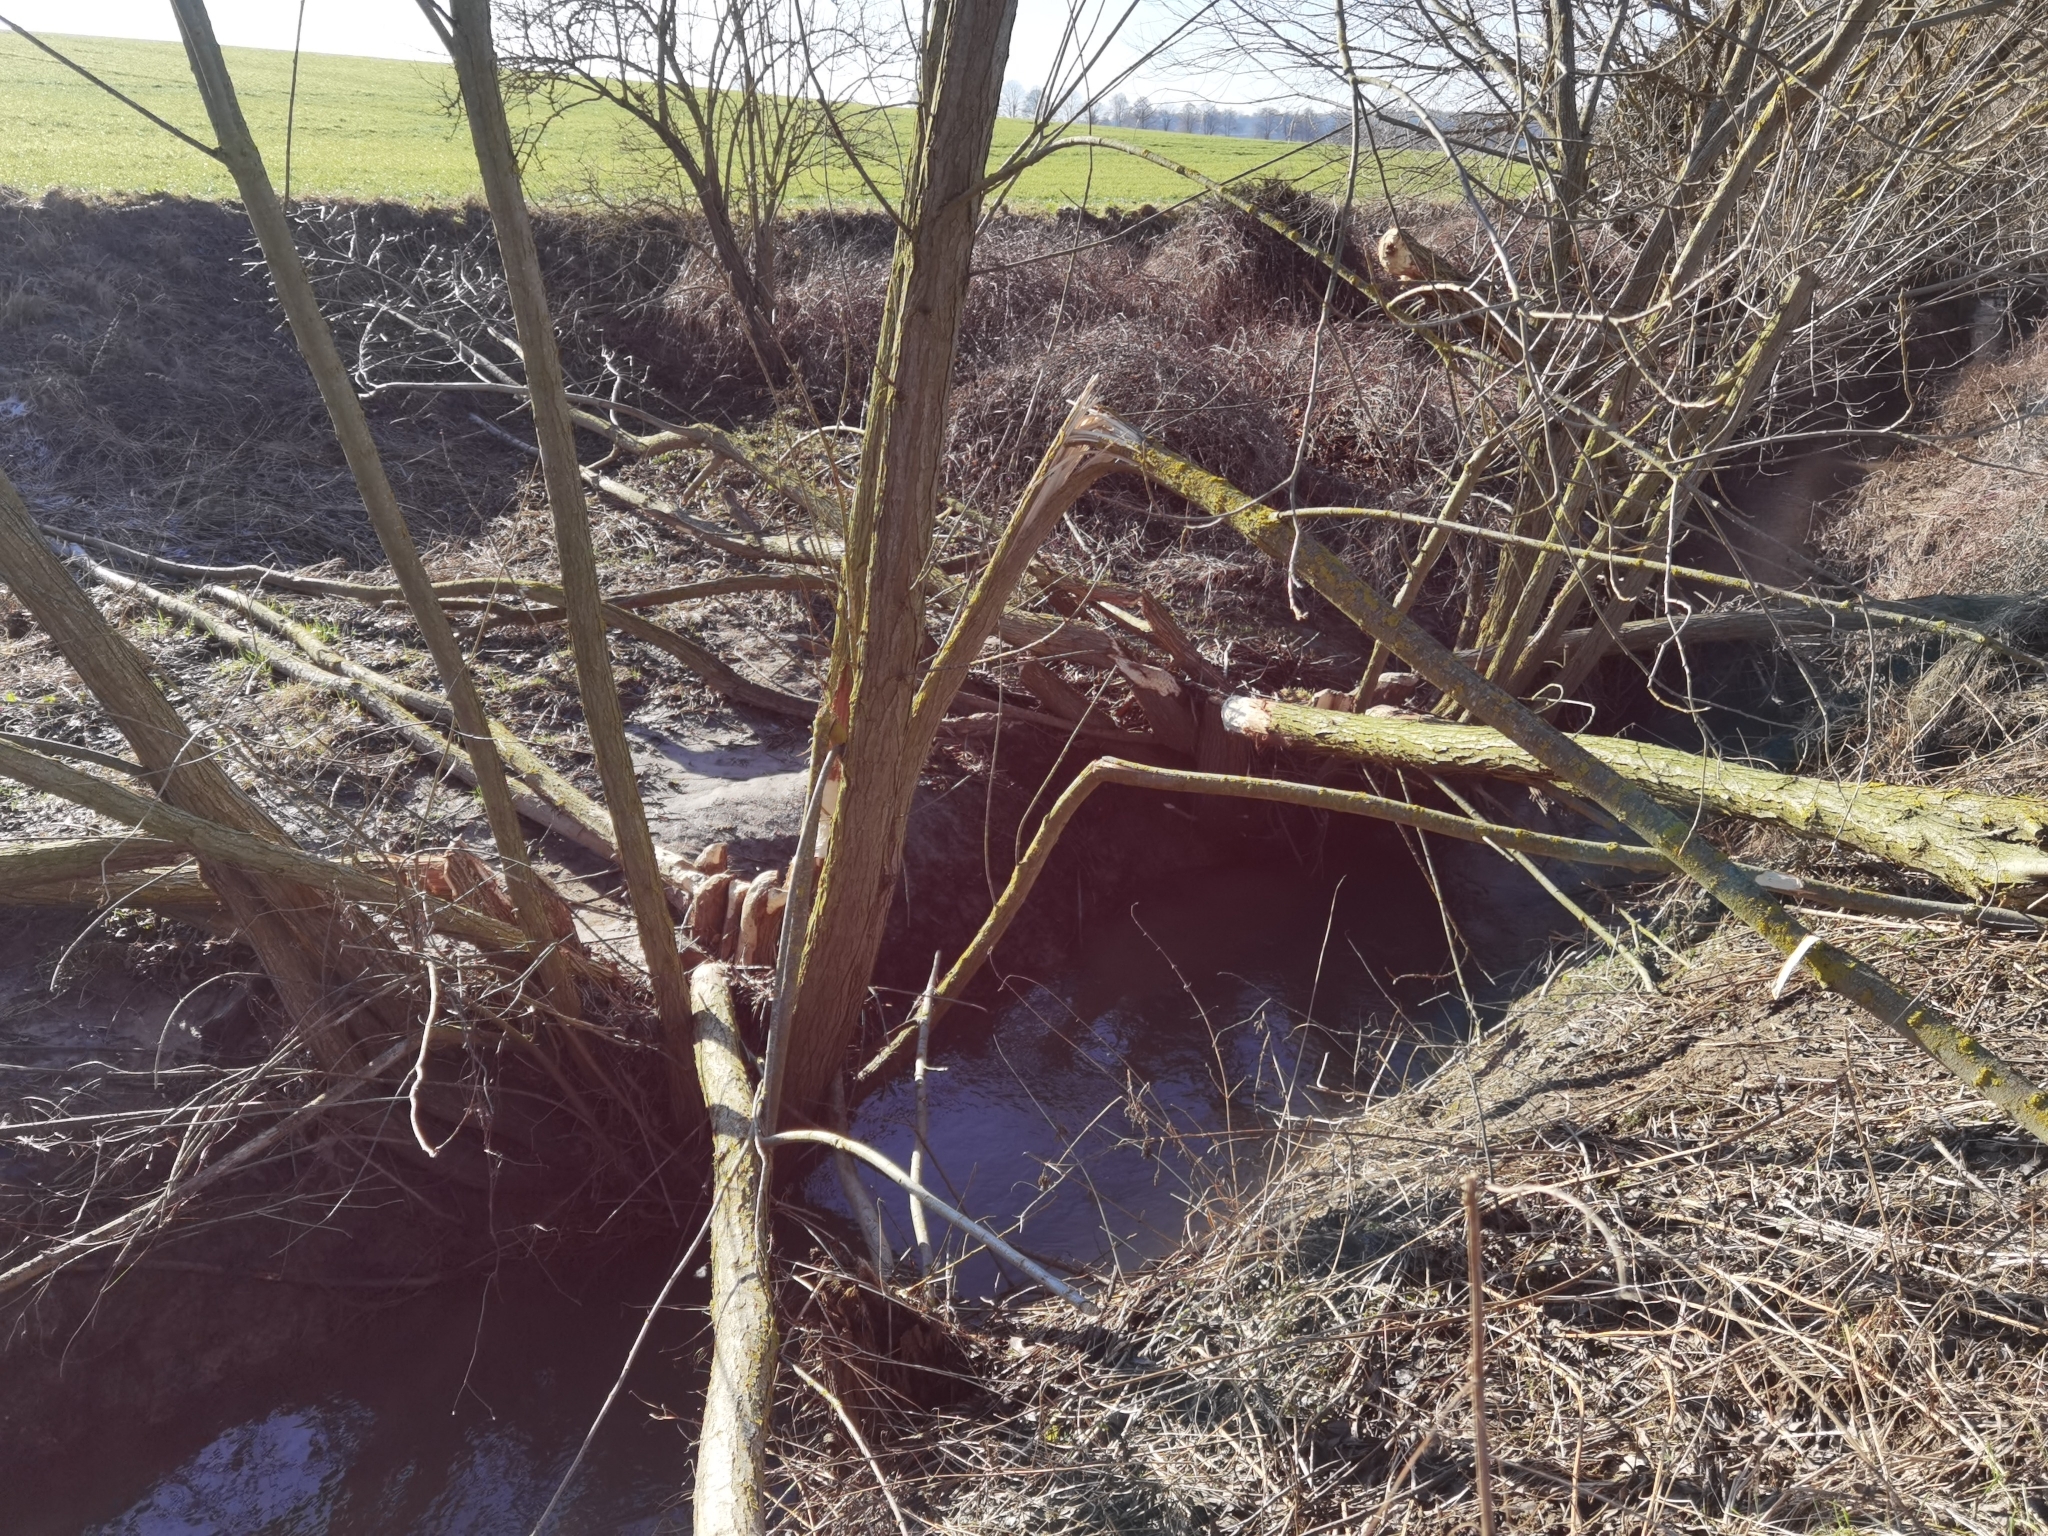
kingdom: Animalia
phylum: Chordata
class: Mammalia
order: Rodentia
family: Castoridae
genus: Castor
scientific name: Castor fiber
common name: Eurasian beaver
